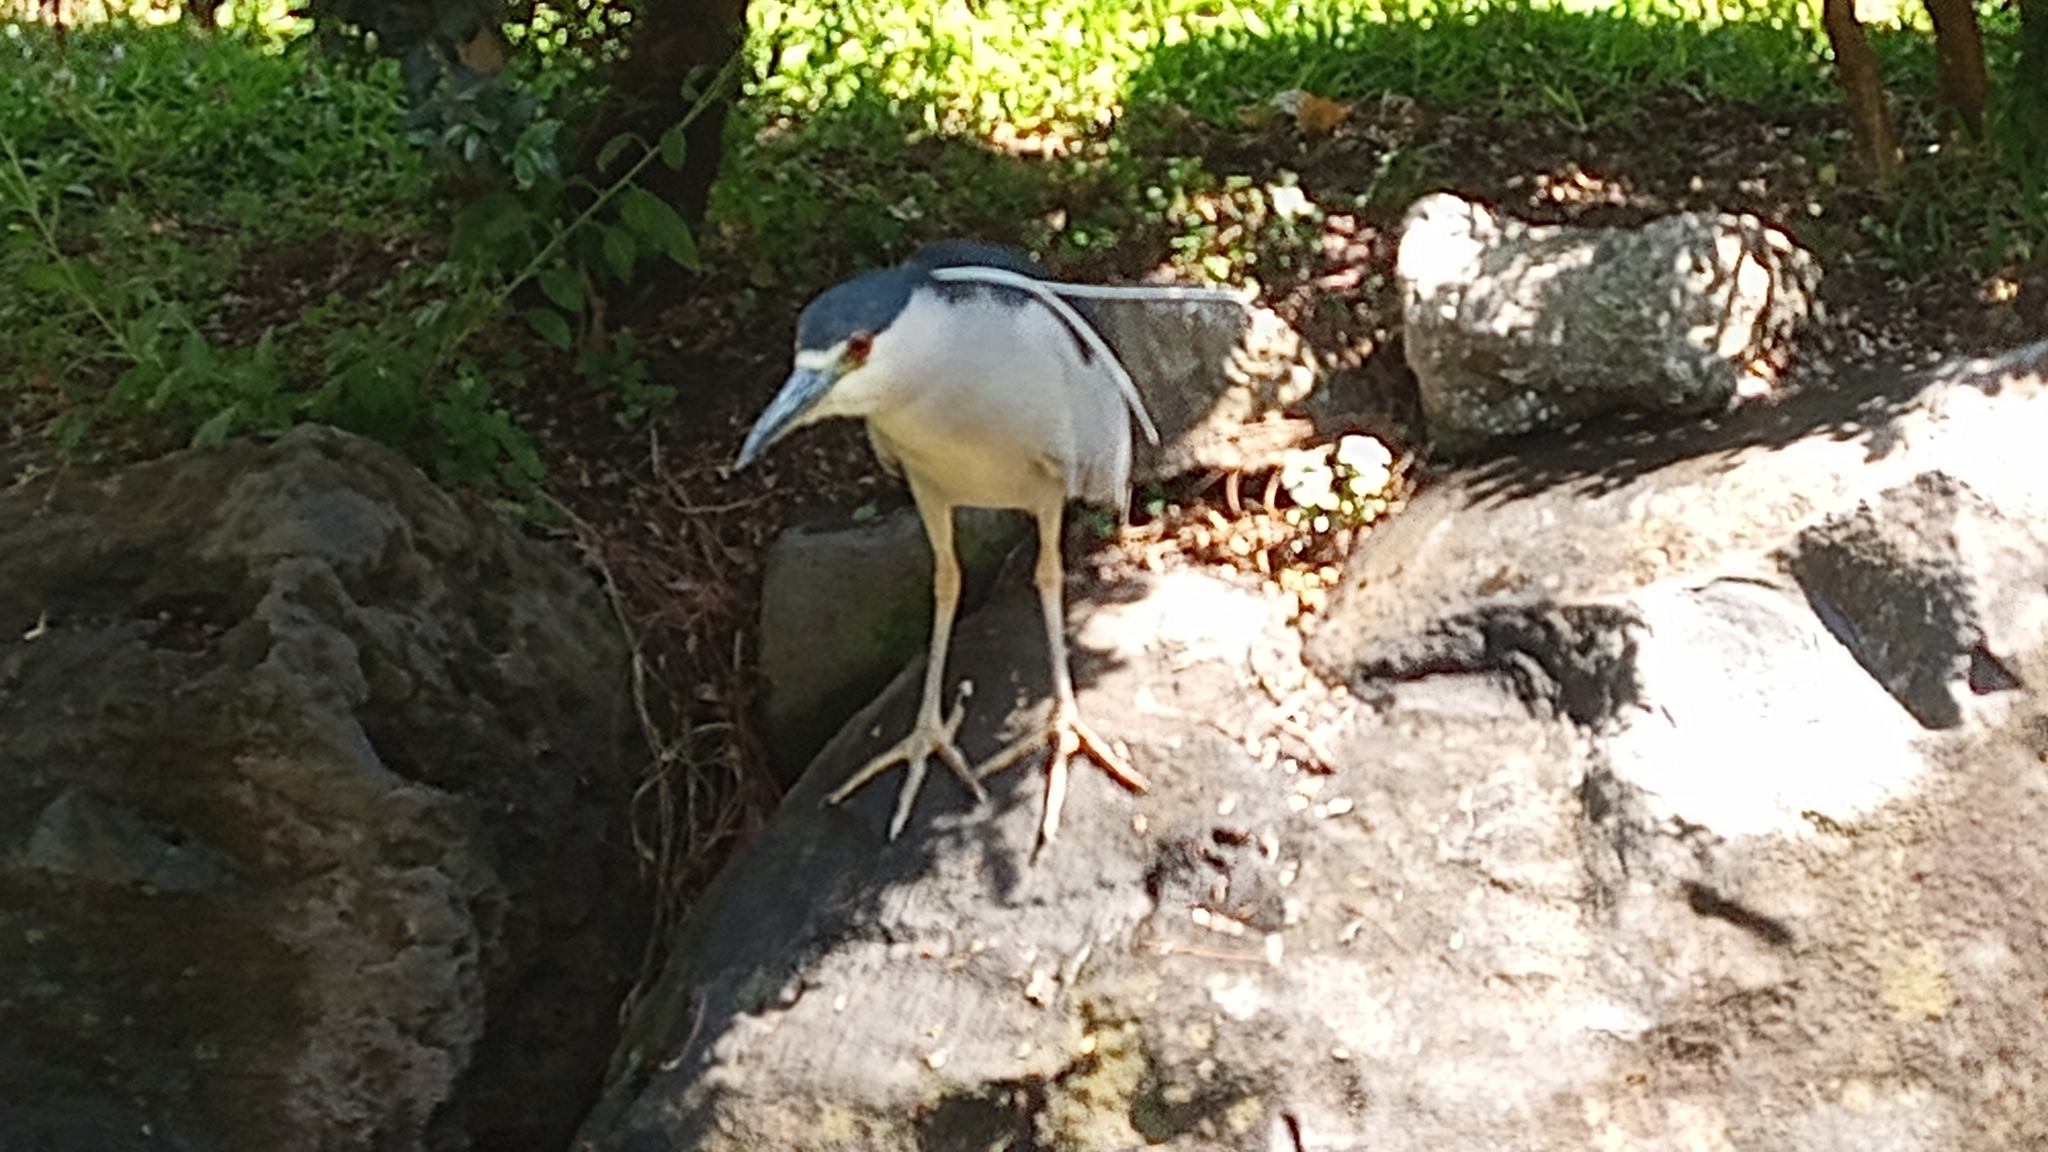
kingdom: Animalia
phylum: Chordata
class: Aves
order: Pelecaniformes
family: Ardeidae
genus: Nycticorax
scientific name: Nycticorax nycticorax
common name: Black-crowned night heron
